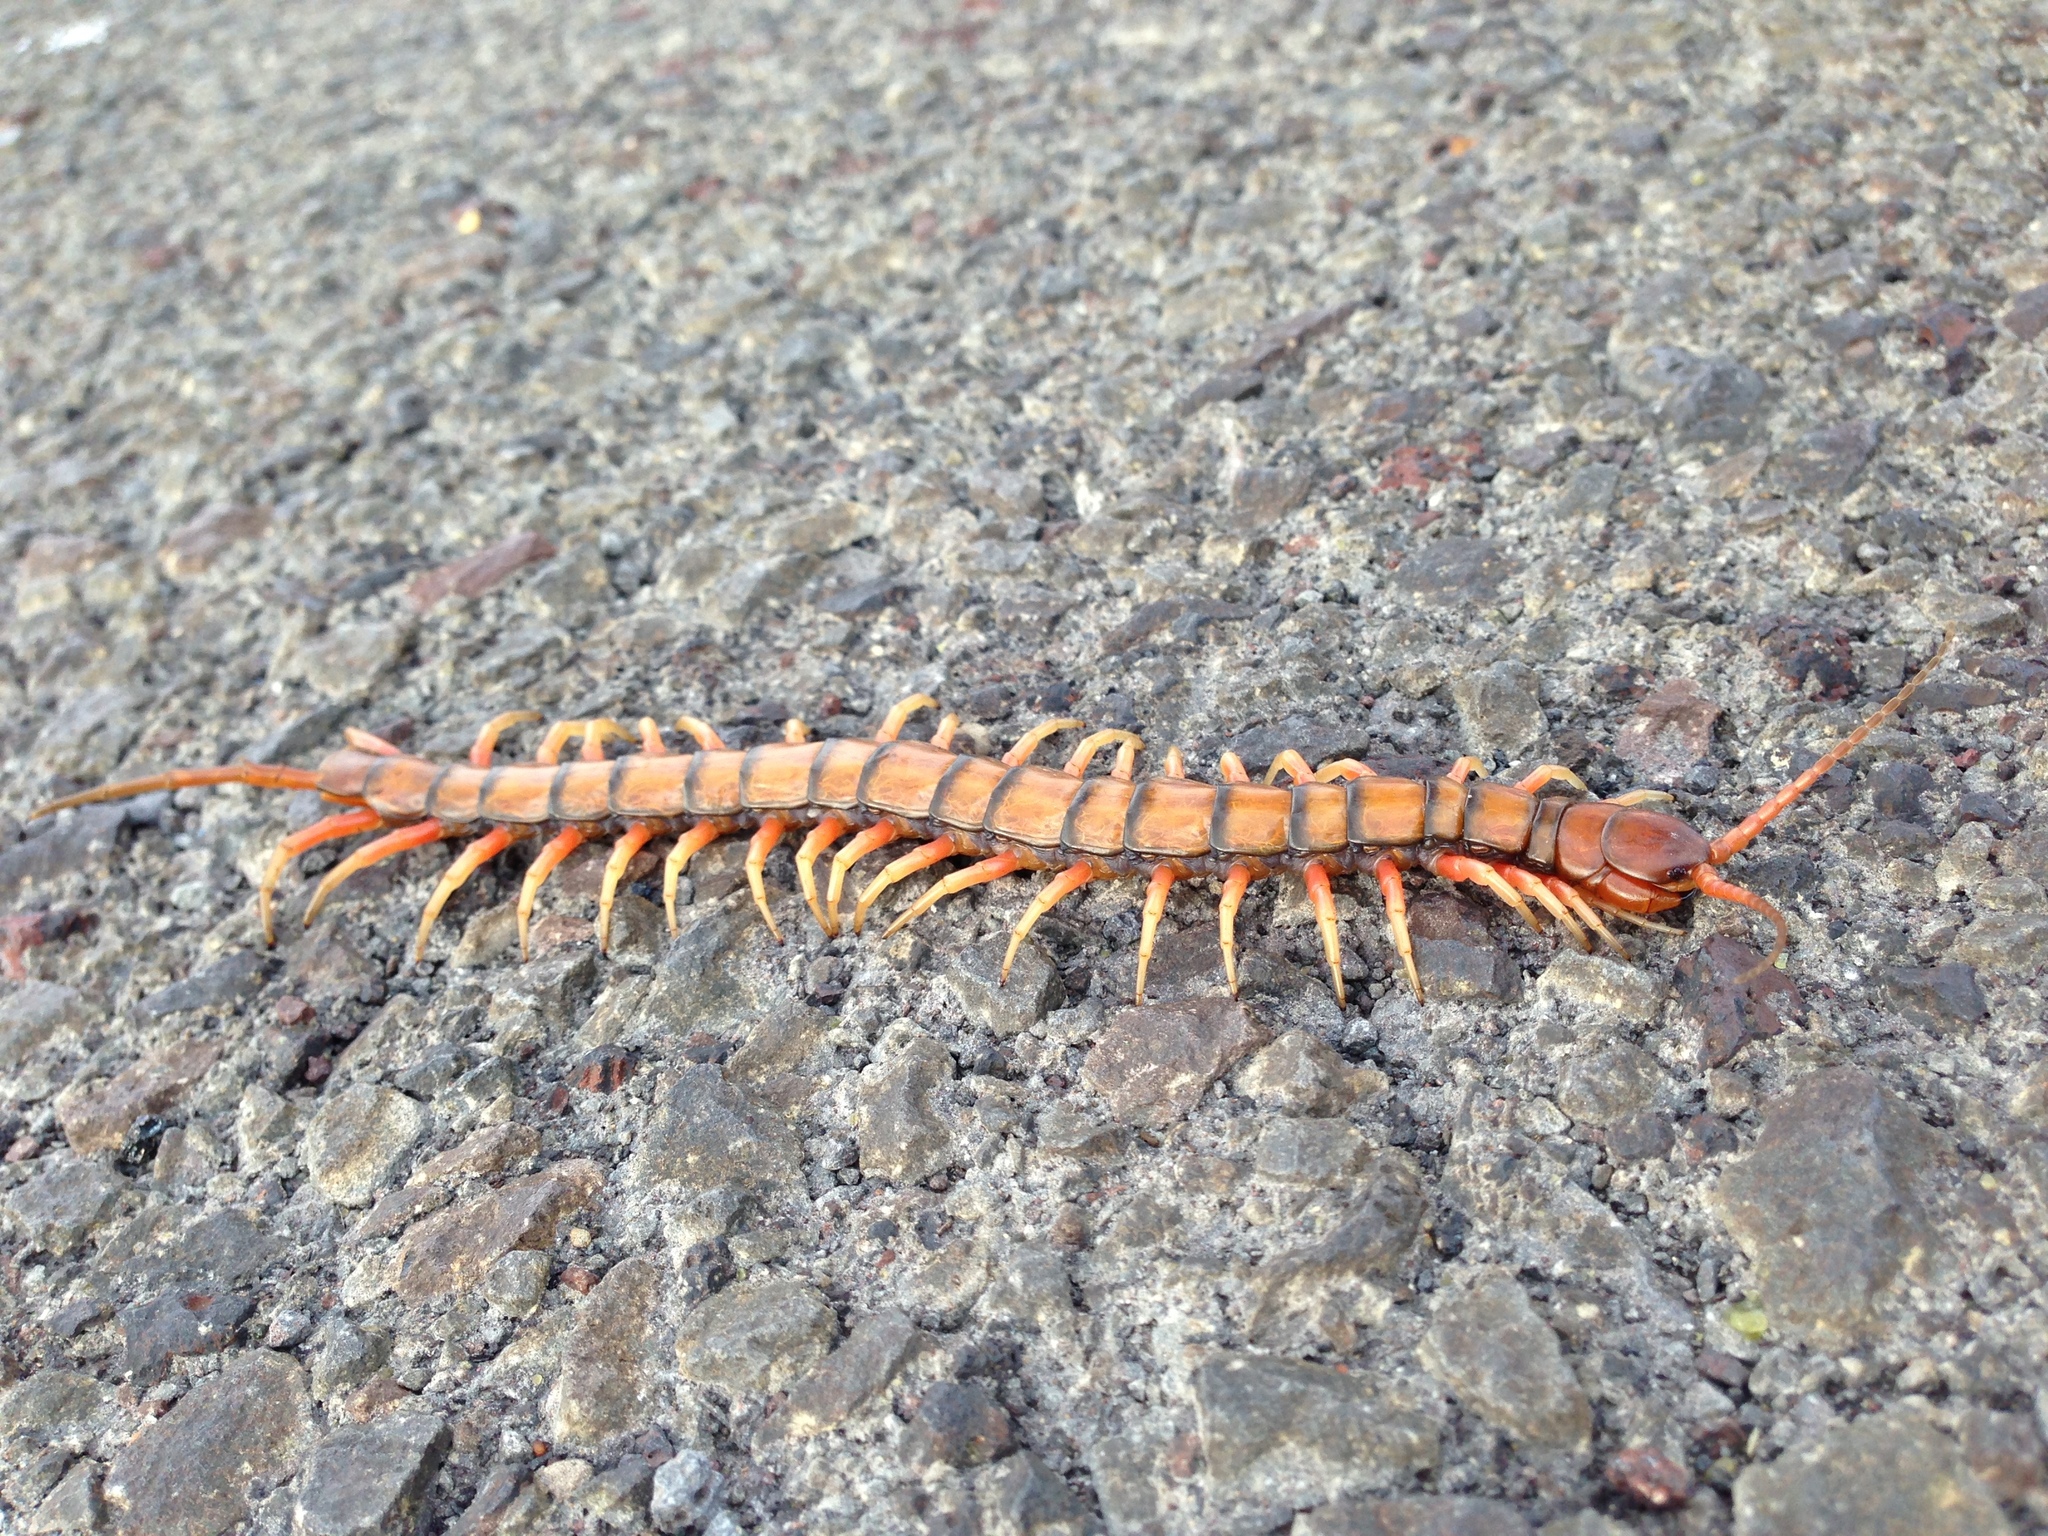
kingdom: Animalia
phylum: Arthropoda
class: Chilopoda
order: Scolopendromorpha
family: Scolopendridae
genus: Scolopendra
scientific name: Scolopendra subspinipes
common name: Centipede
